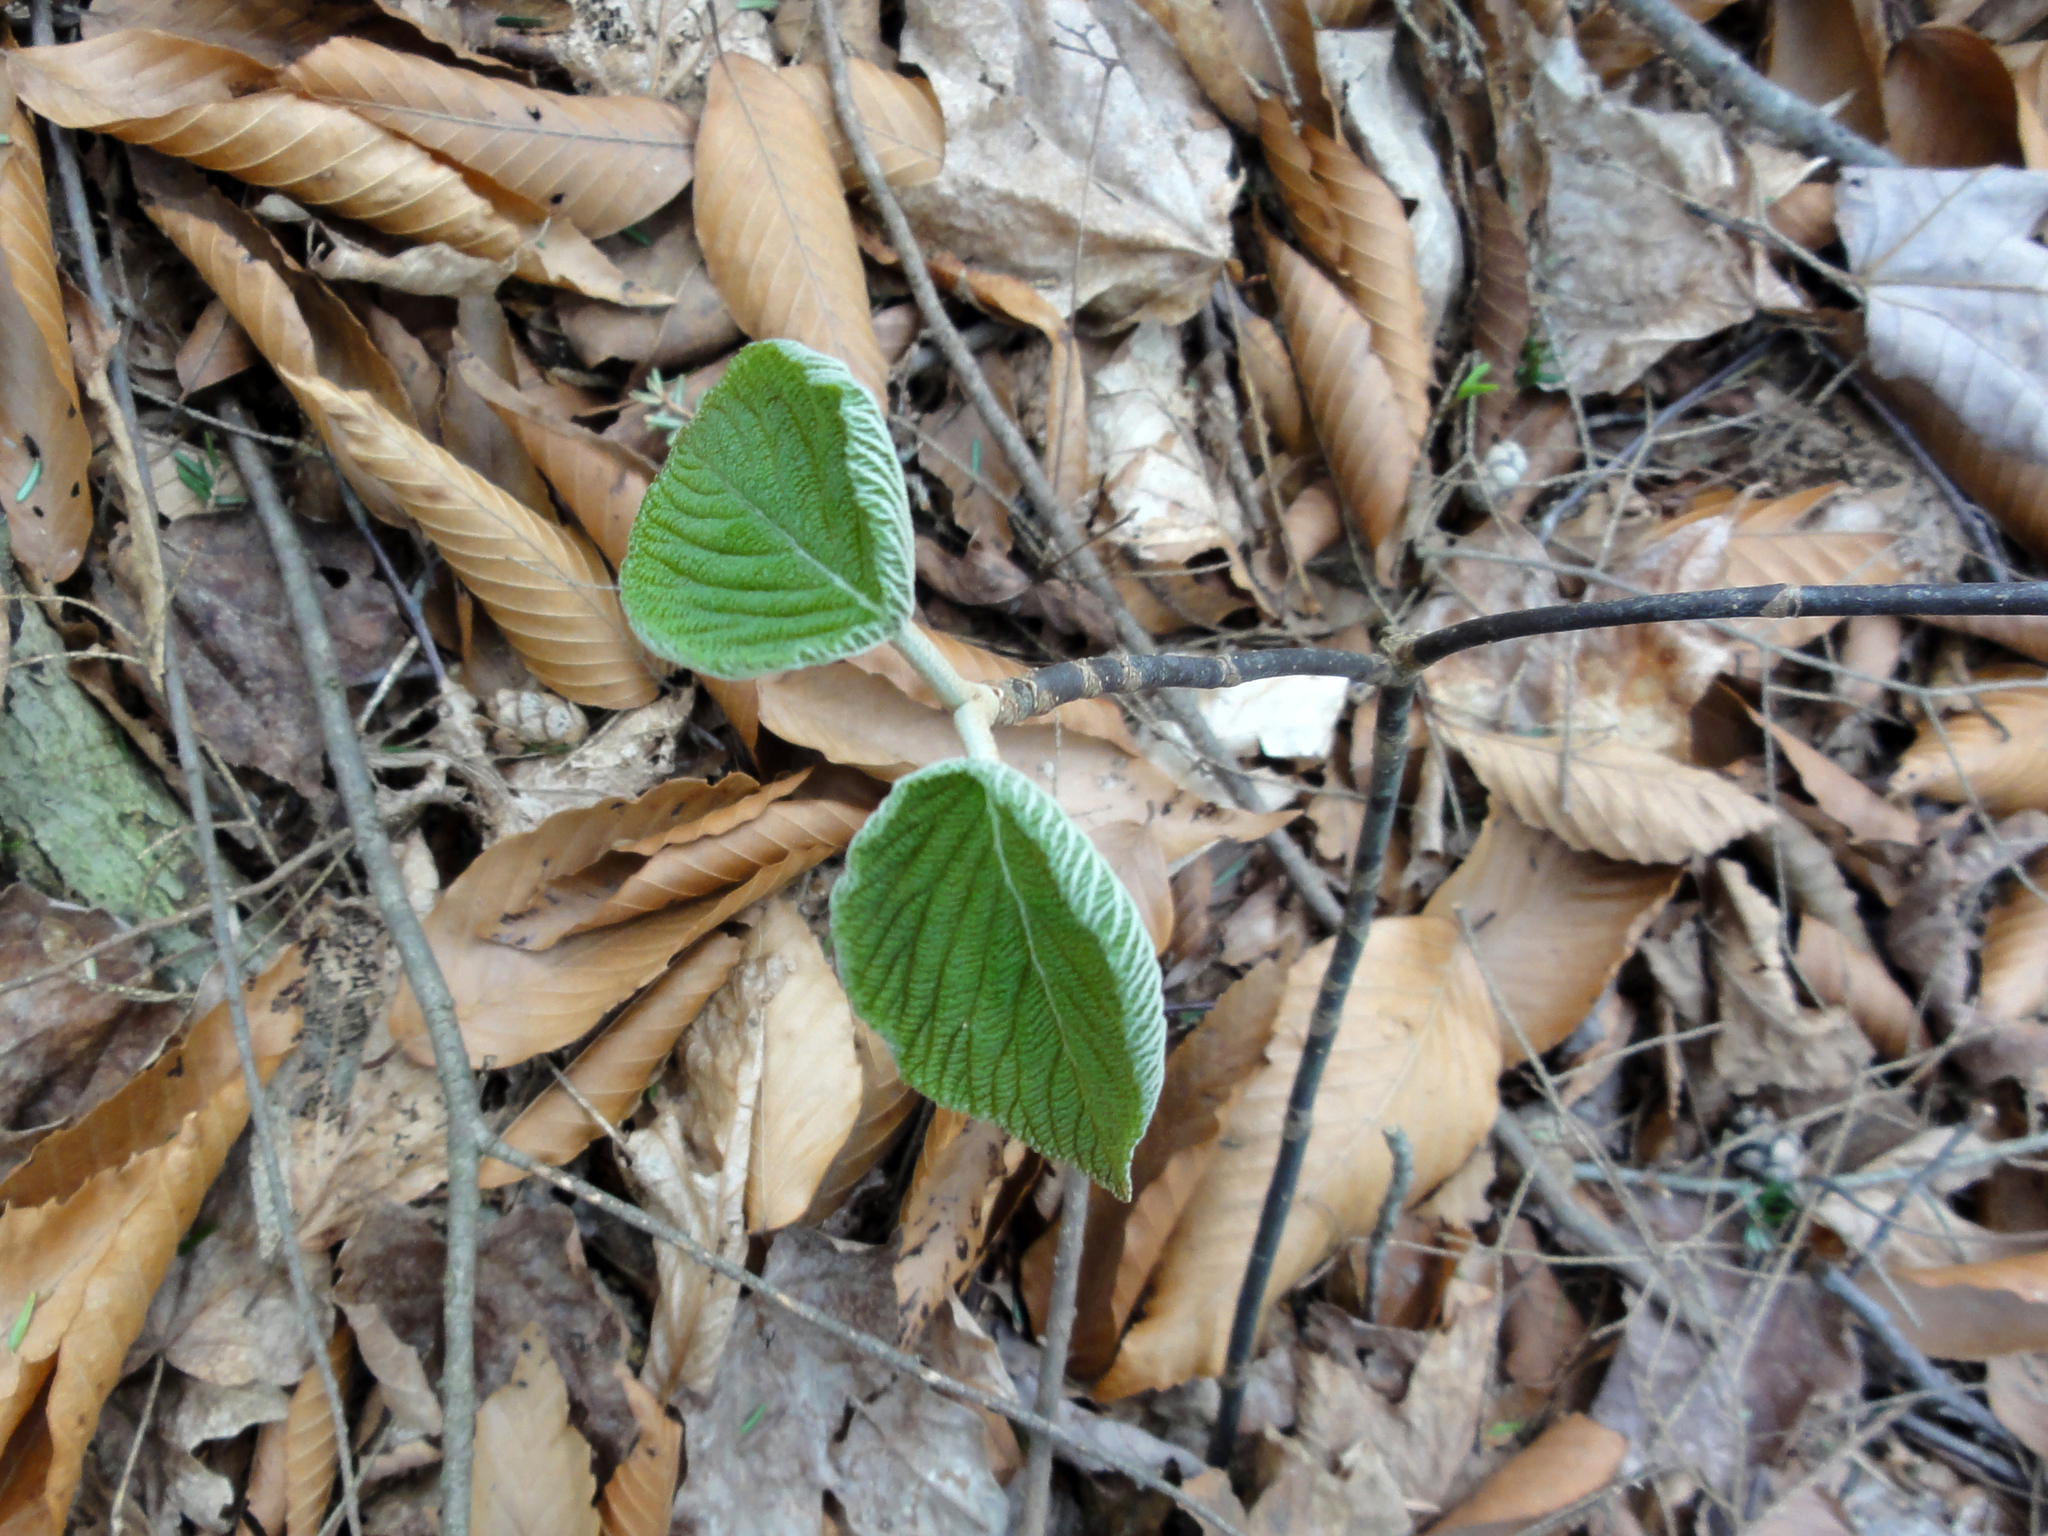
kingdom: Plantae
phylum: Tracheophyta
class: Magnoliopsida
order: Dipsacales
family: Viburnaceae
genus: Viburnum
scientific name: Viburnum lantanoides
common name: Hobblebush
